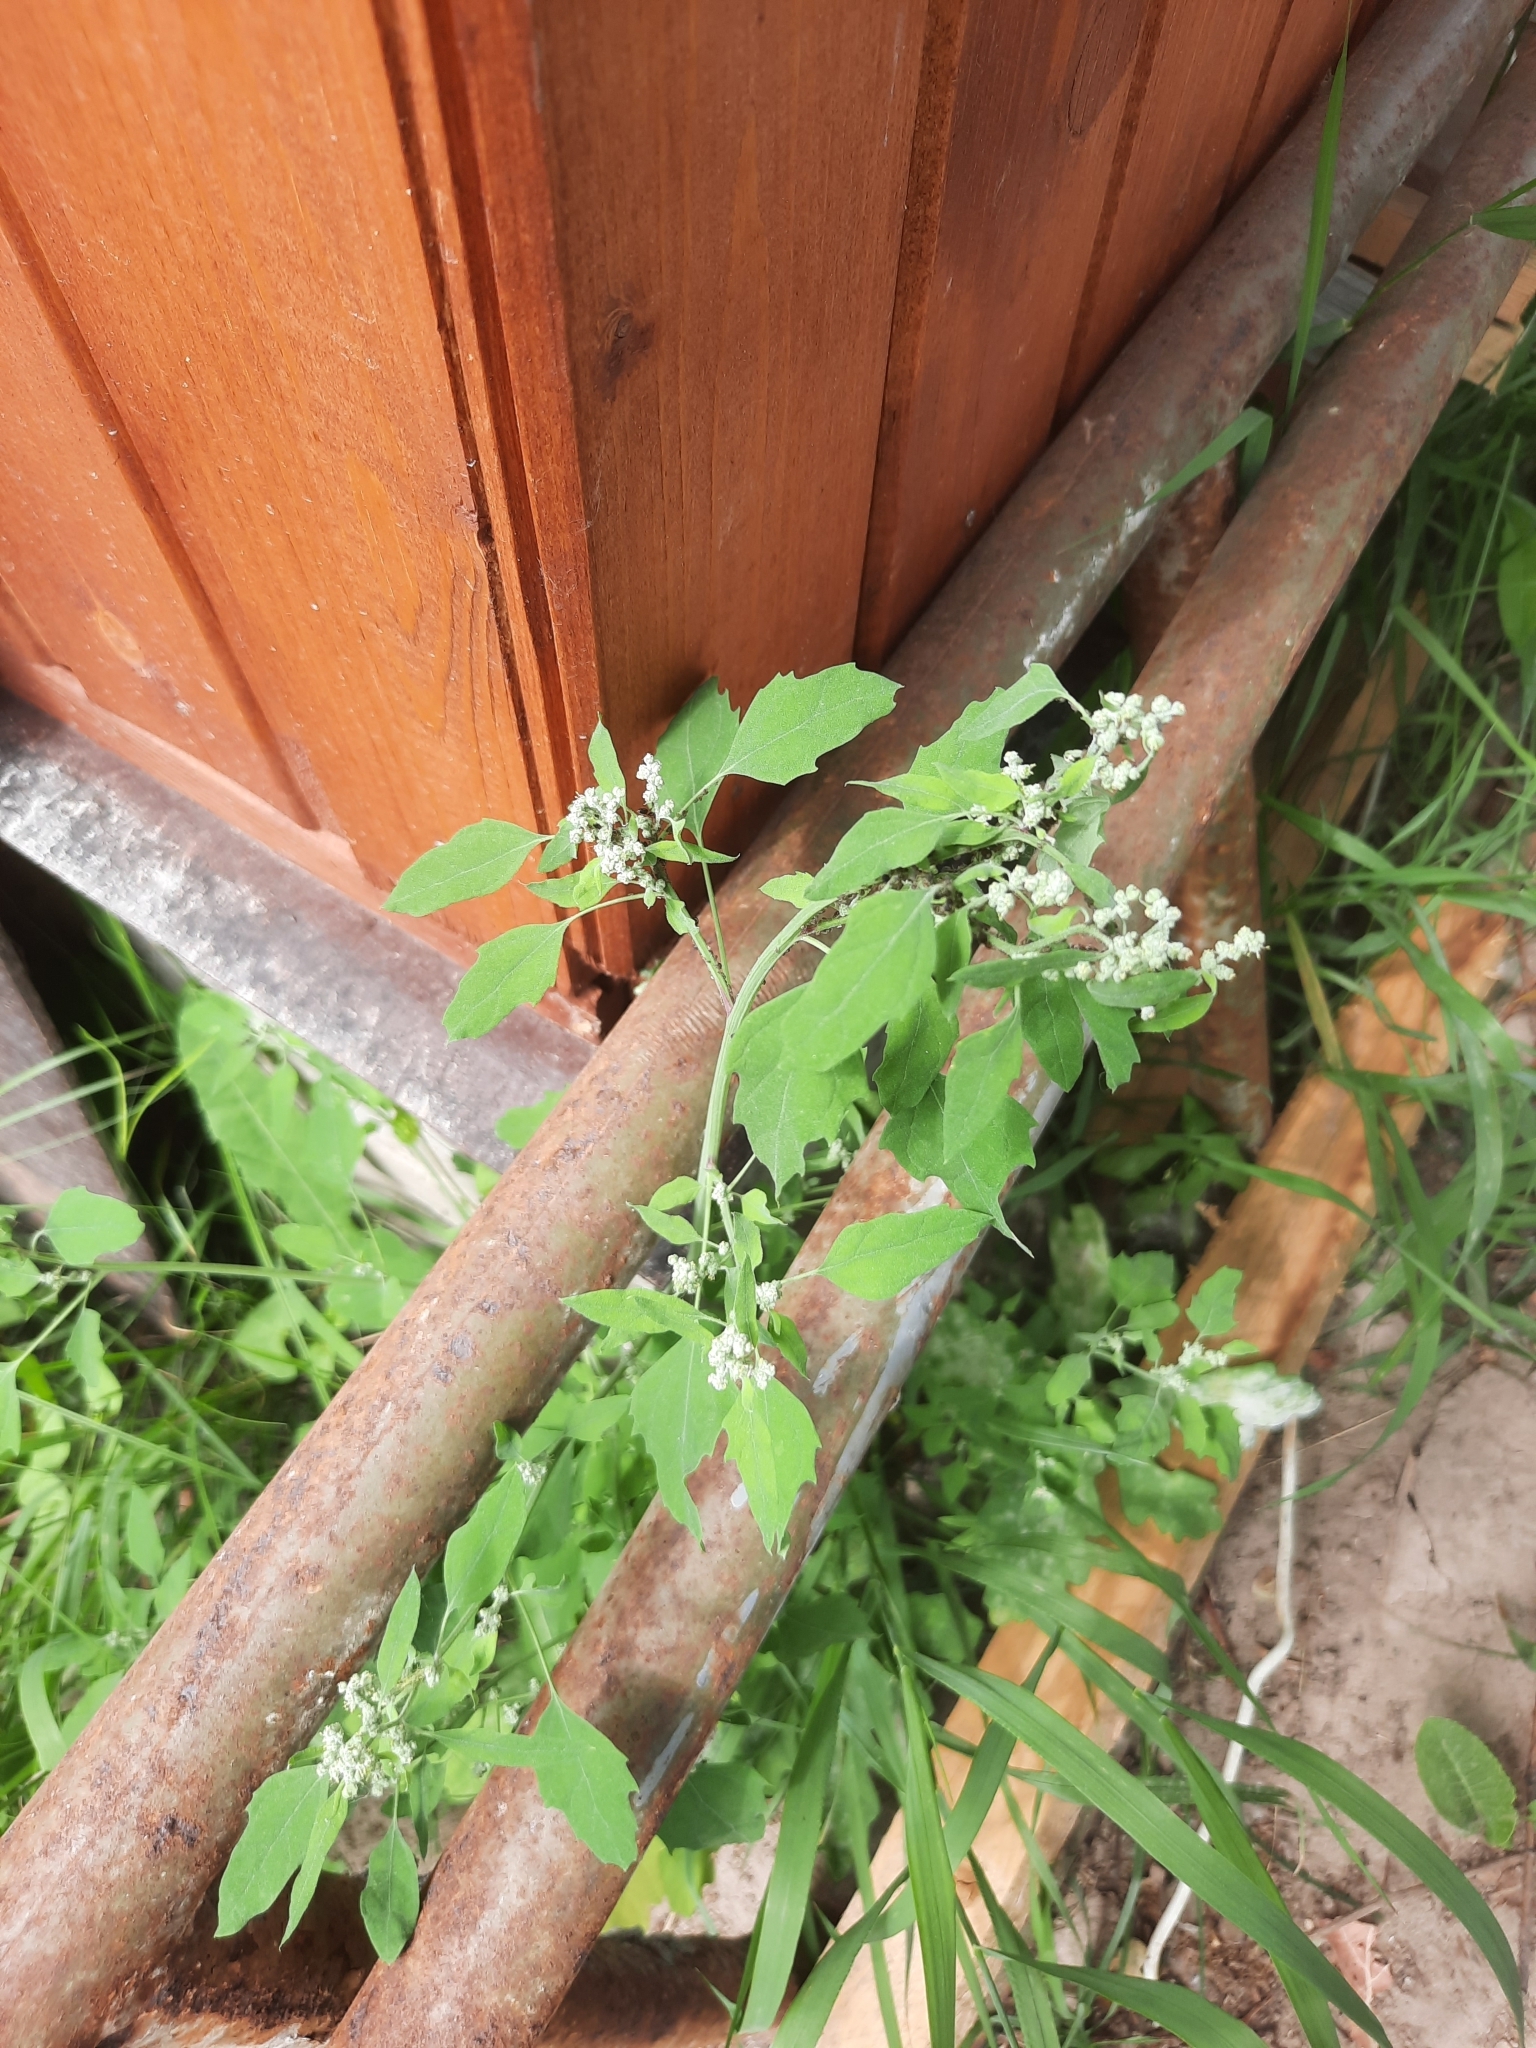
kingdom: Plantae
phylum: Tracheophyta
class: Magnoliopsida
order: Caryophyllales
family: Amaranthaceae
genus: Chenopodium
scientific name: Chenopodium album
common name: Fat-hen
